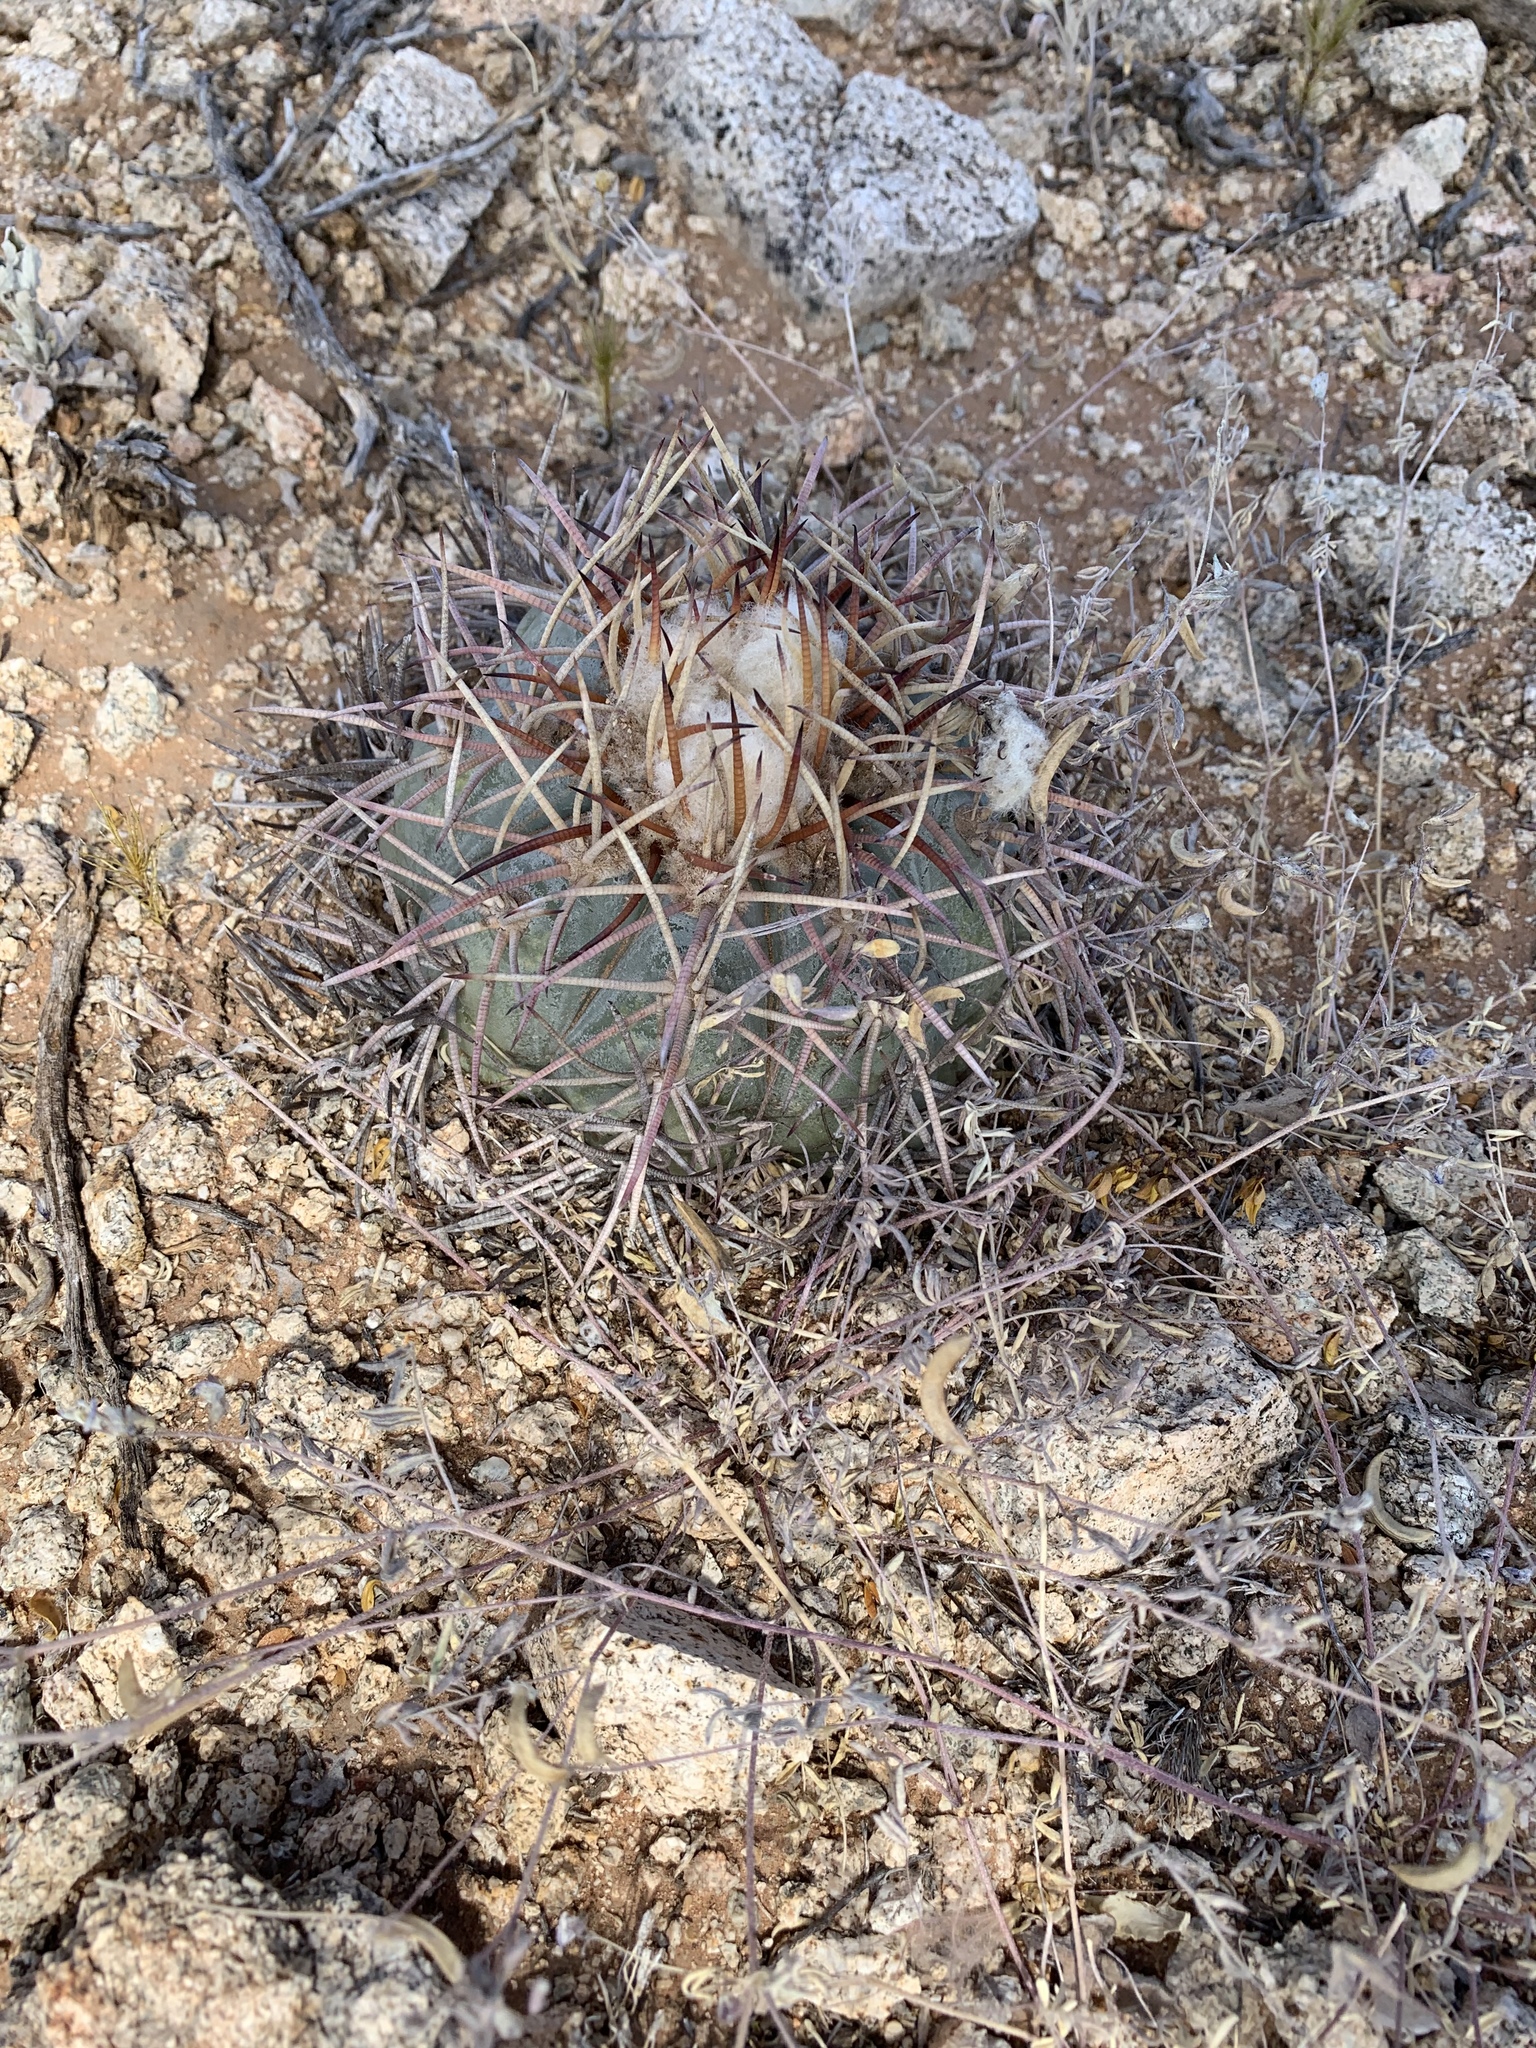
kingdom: Plantae
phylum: Tracheophyta
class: Magnoliopsida
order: Caryophyllales
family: Cactaceae
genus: Echinocactus
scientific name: Echinocactus horizonthalonius
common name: Devilshead
